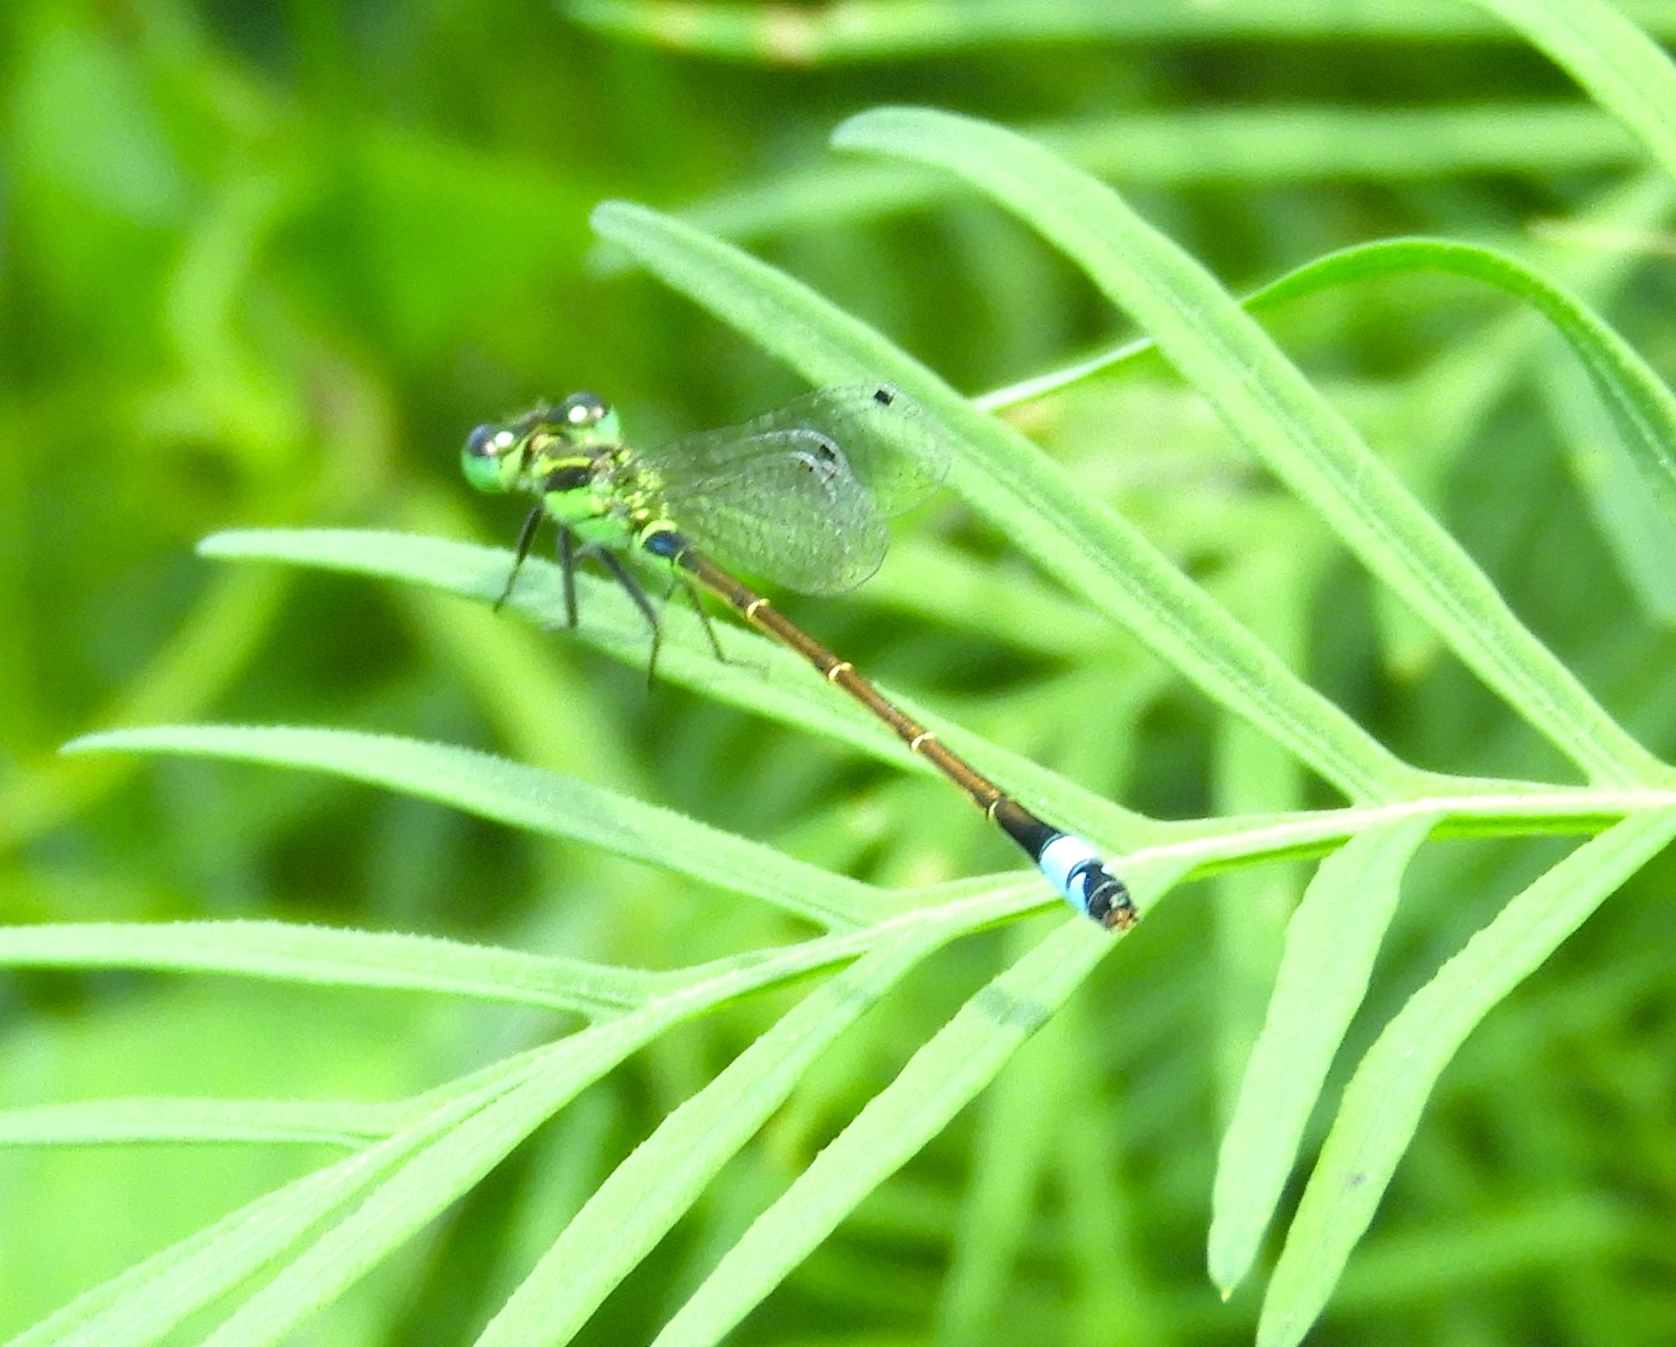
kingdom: Animalia
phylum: Arthropoda
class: Insecta
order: Odonata
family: Coenagrionidae
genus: Ischnura
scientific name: Ischnura ramburii
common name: Rambur's forktail
